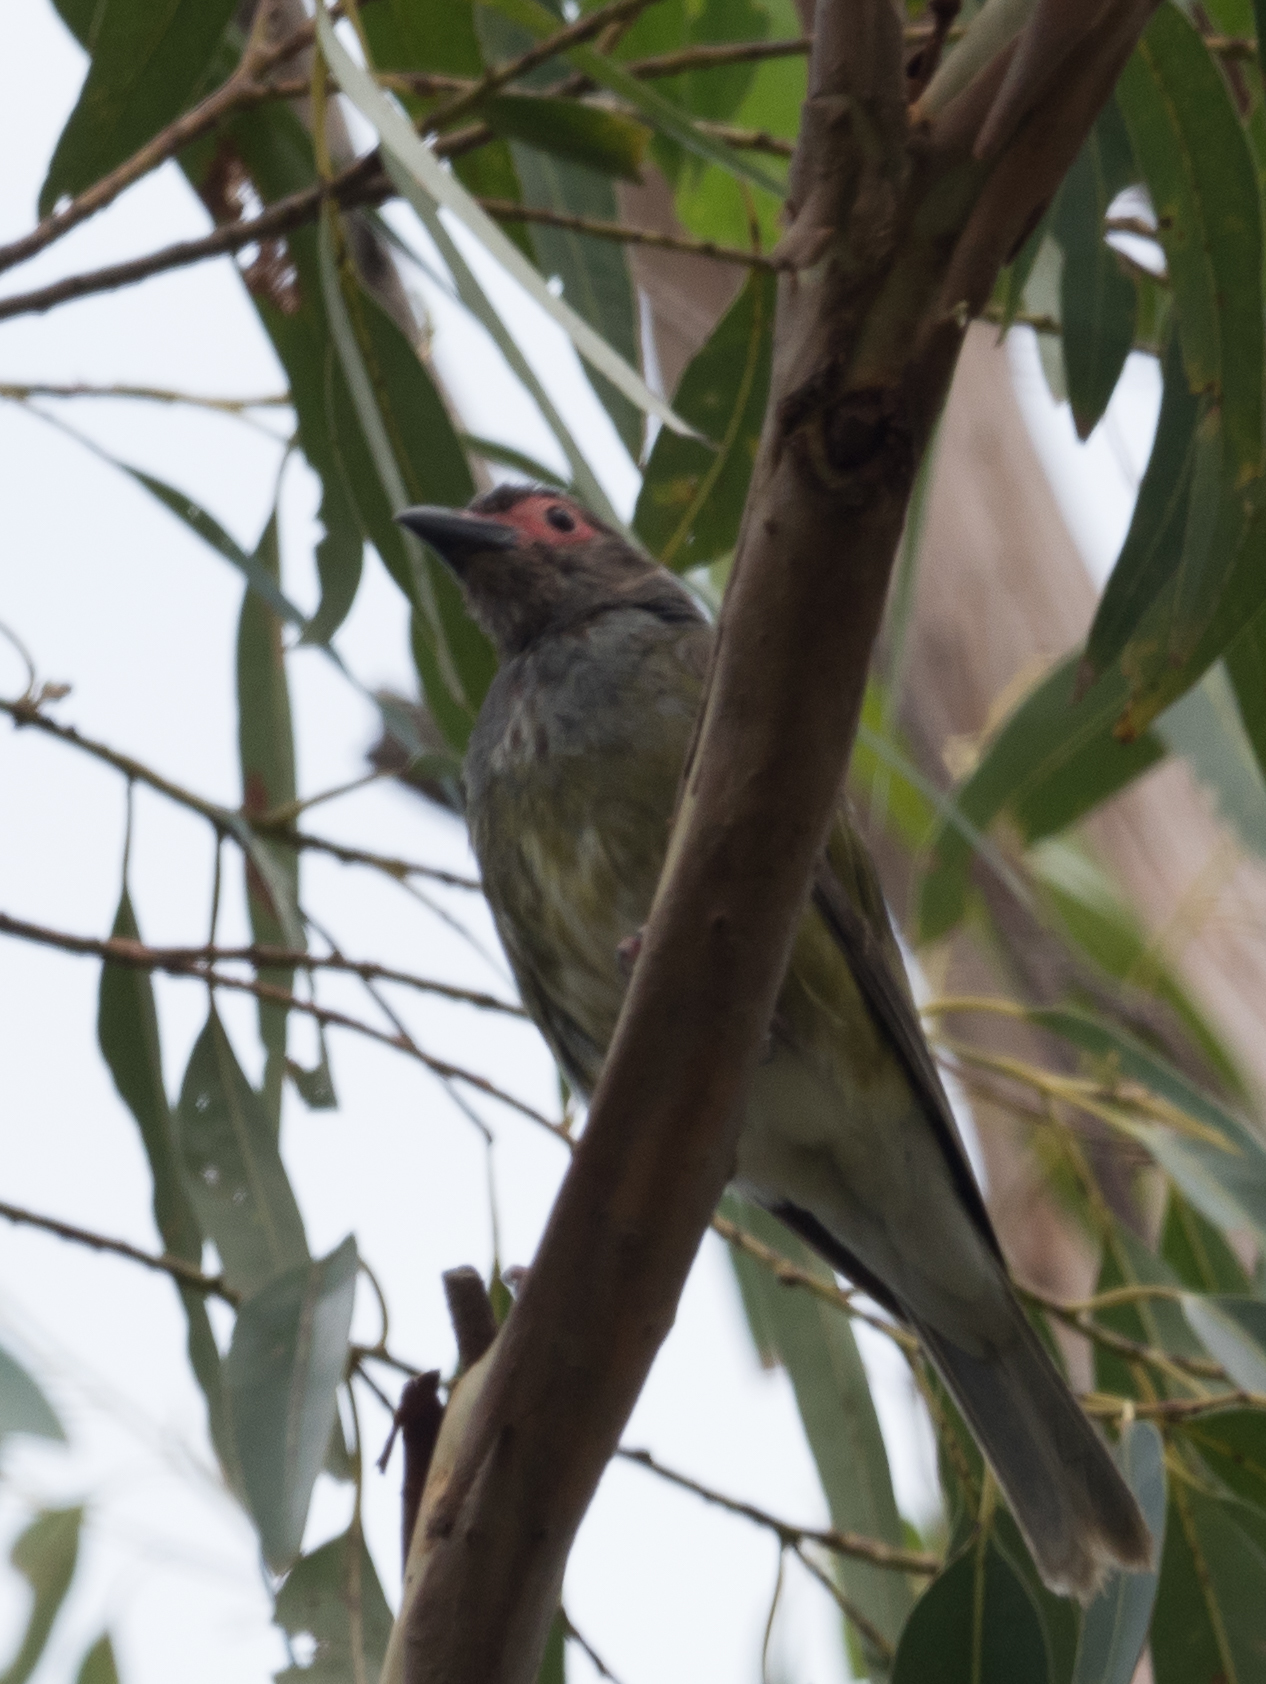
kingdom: Animalia
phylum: Chordata
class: Aves
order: Passeriformes
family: Oriolidae
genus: Sphecotheres
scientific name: Sphecotheres vieilloti
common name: Australasian figbird
